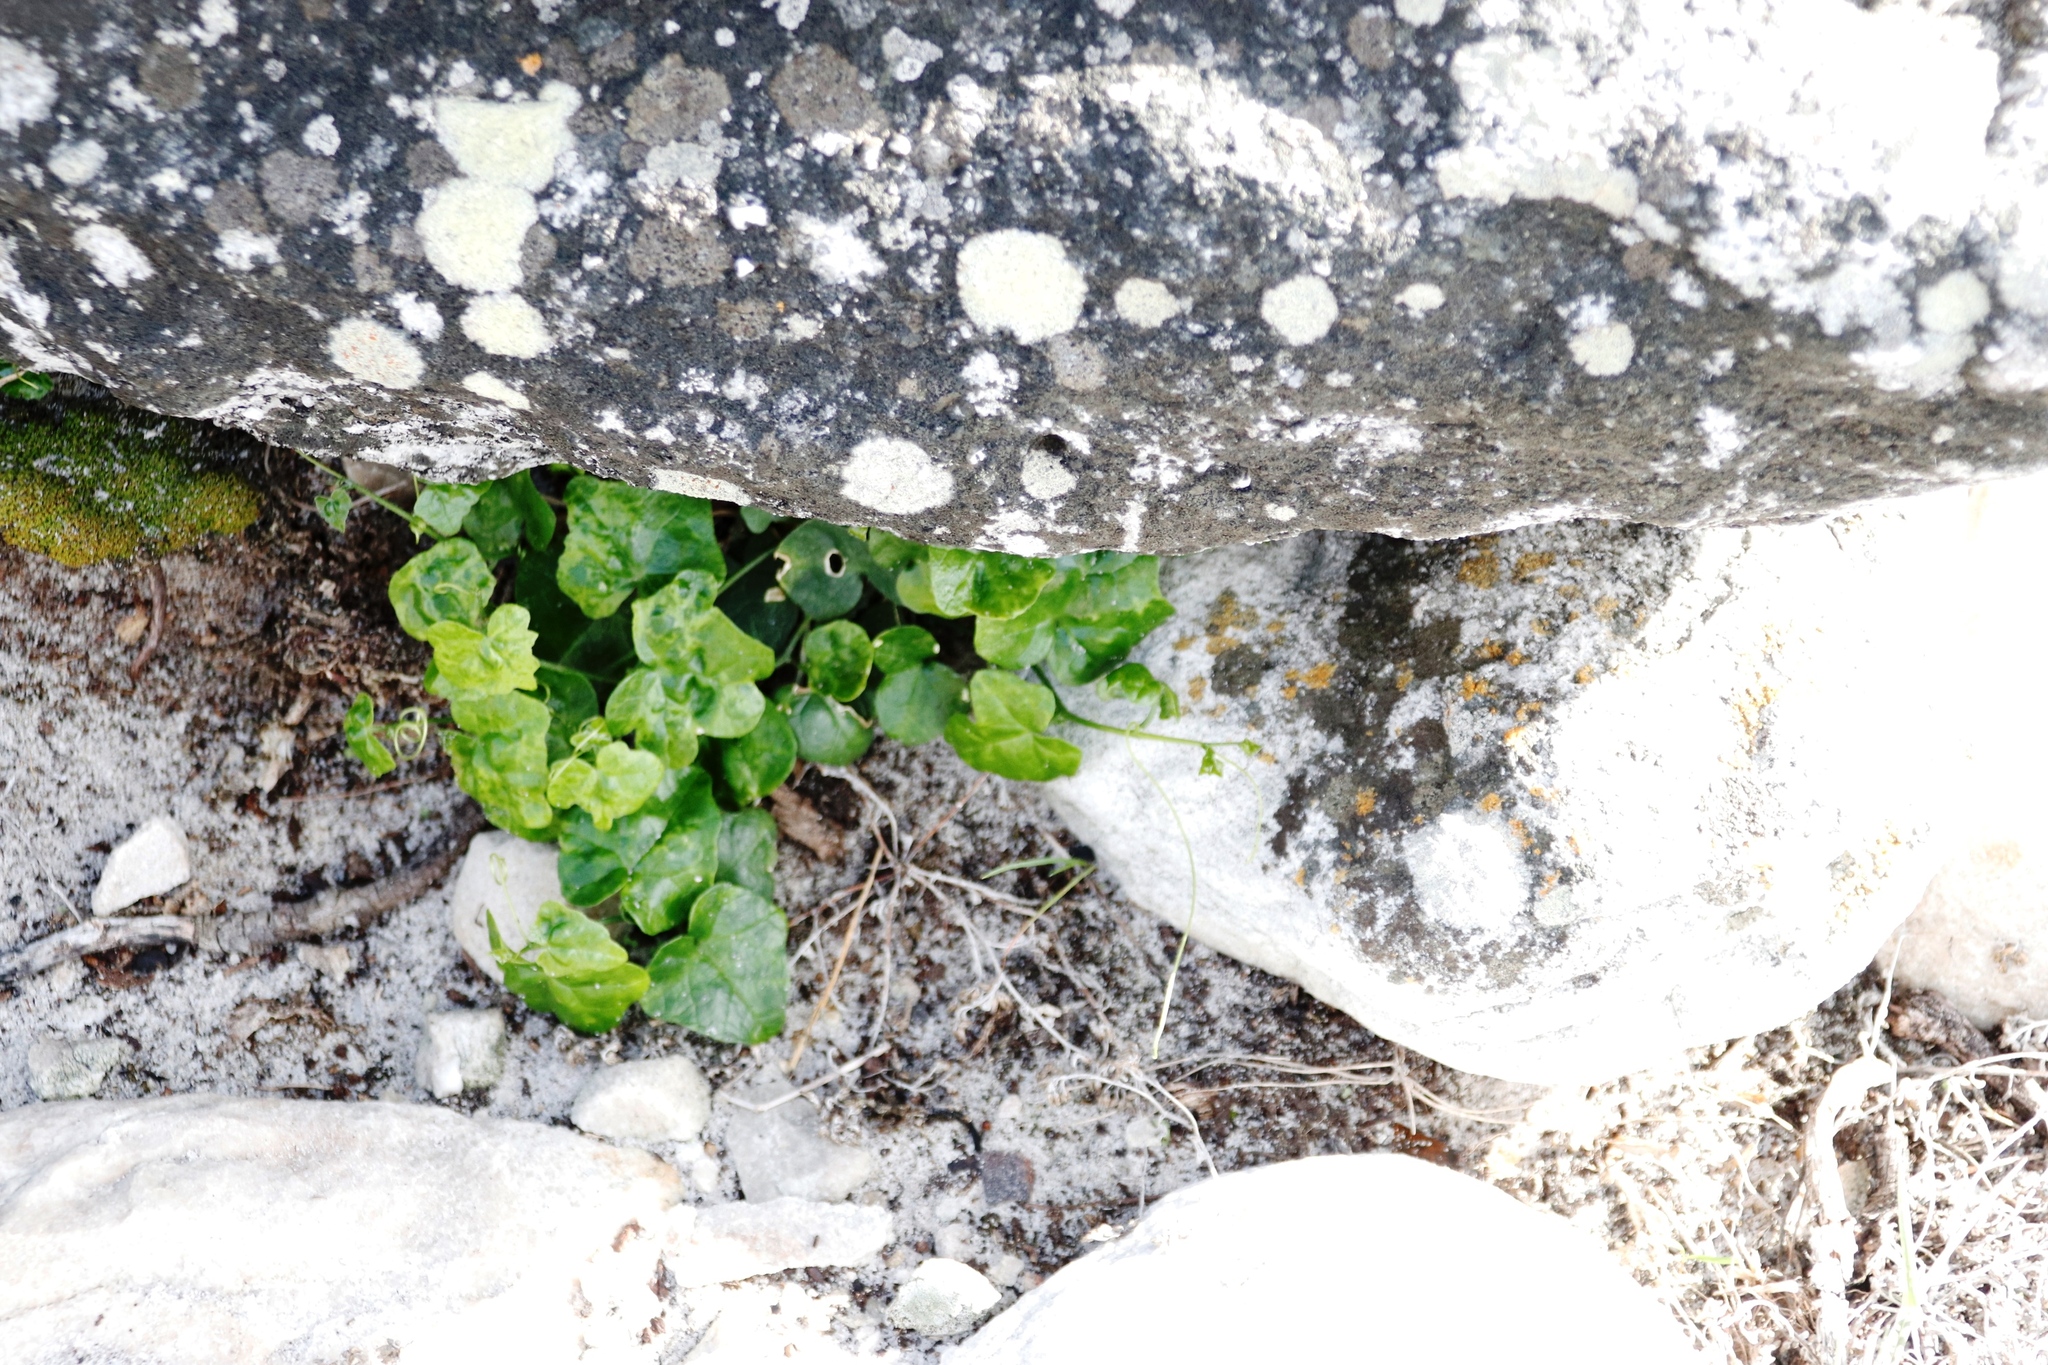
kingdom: Plantae
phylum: Tracheophyta
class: Magnoliopsida
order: Cucurbitales
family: Cucurbitaceae
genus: Kedrostis
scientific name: Kedrostis nana
